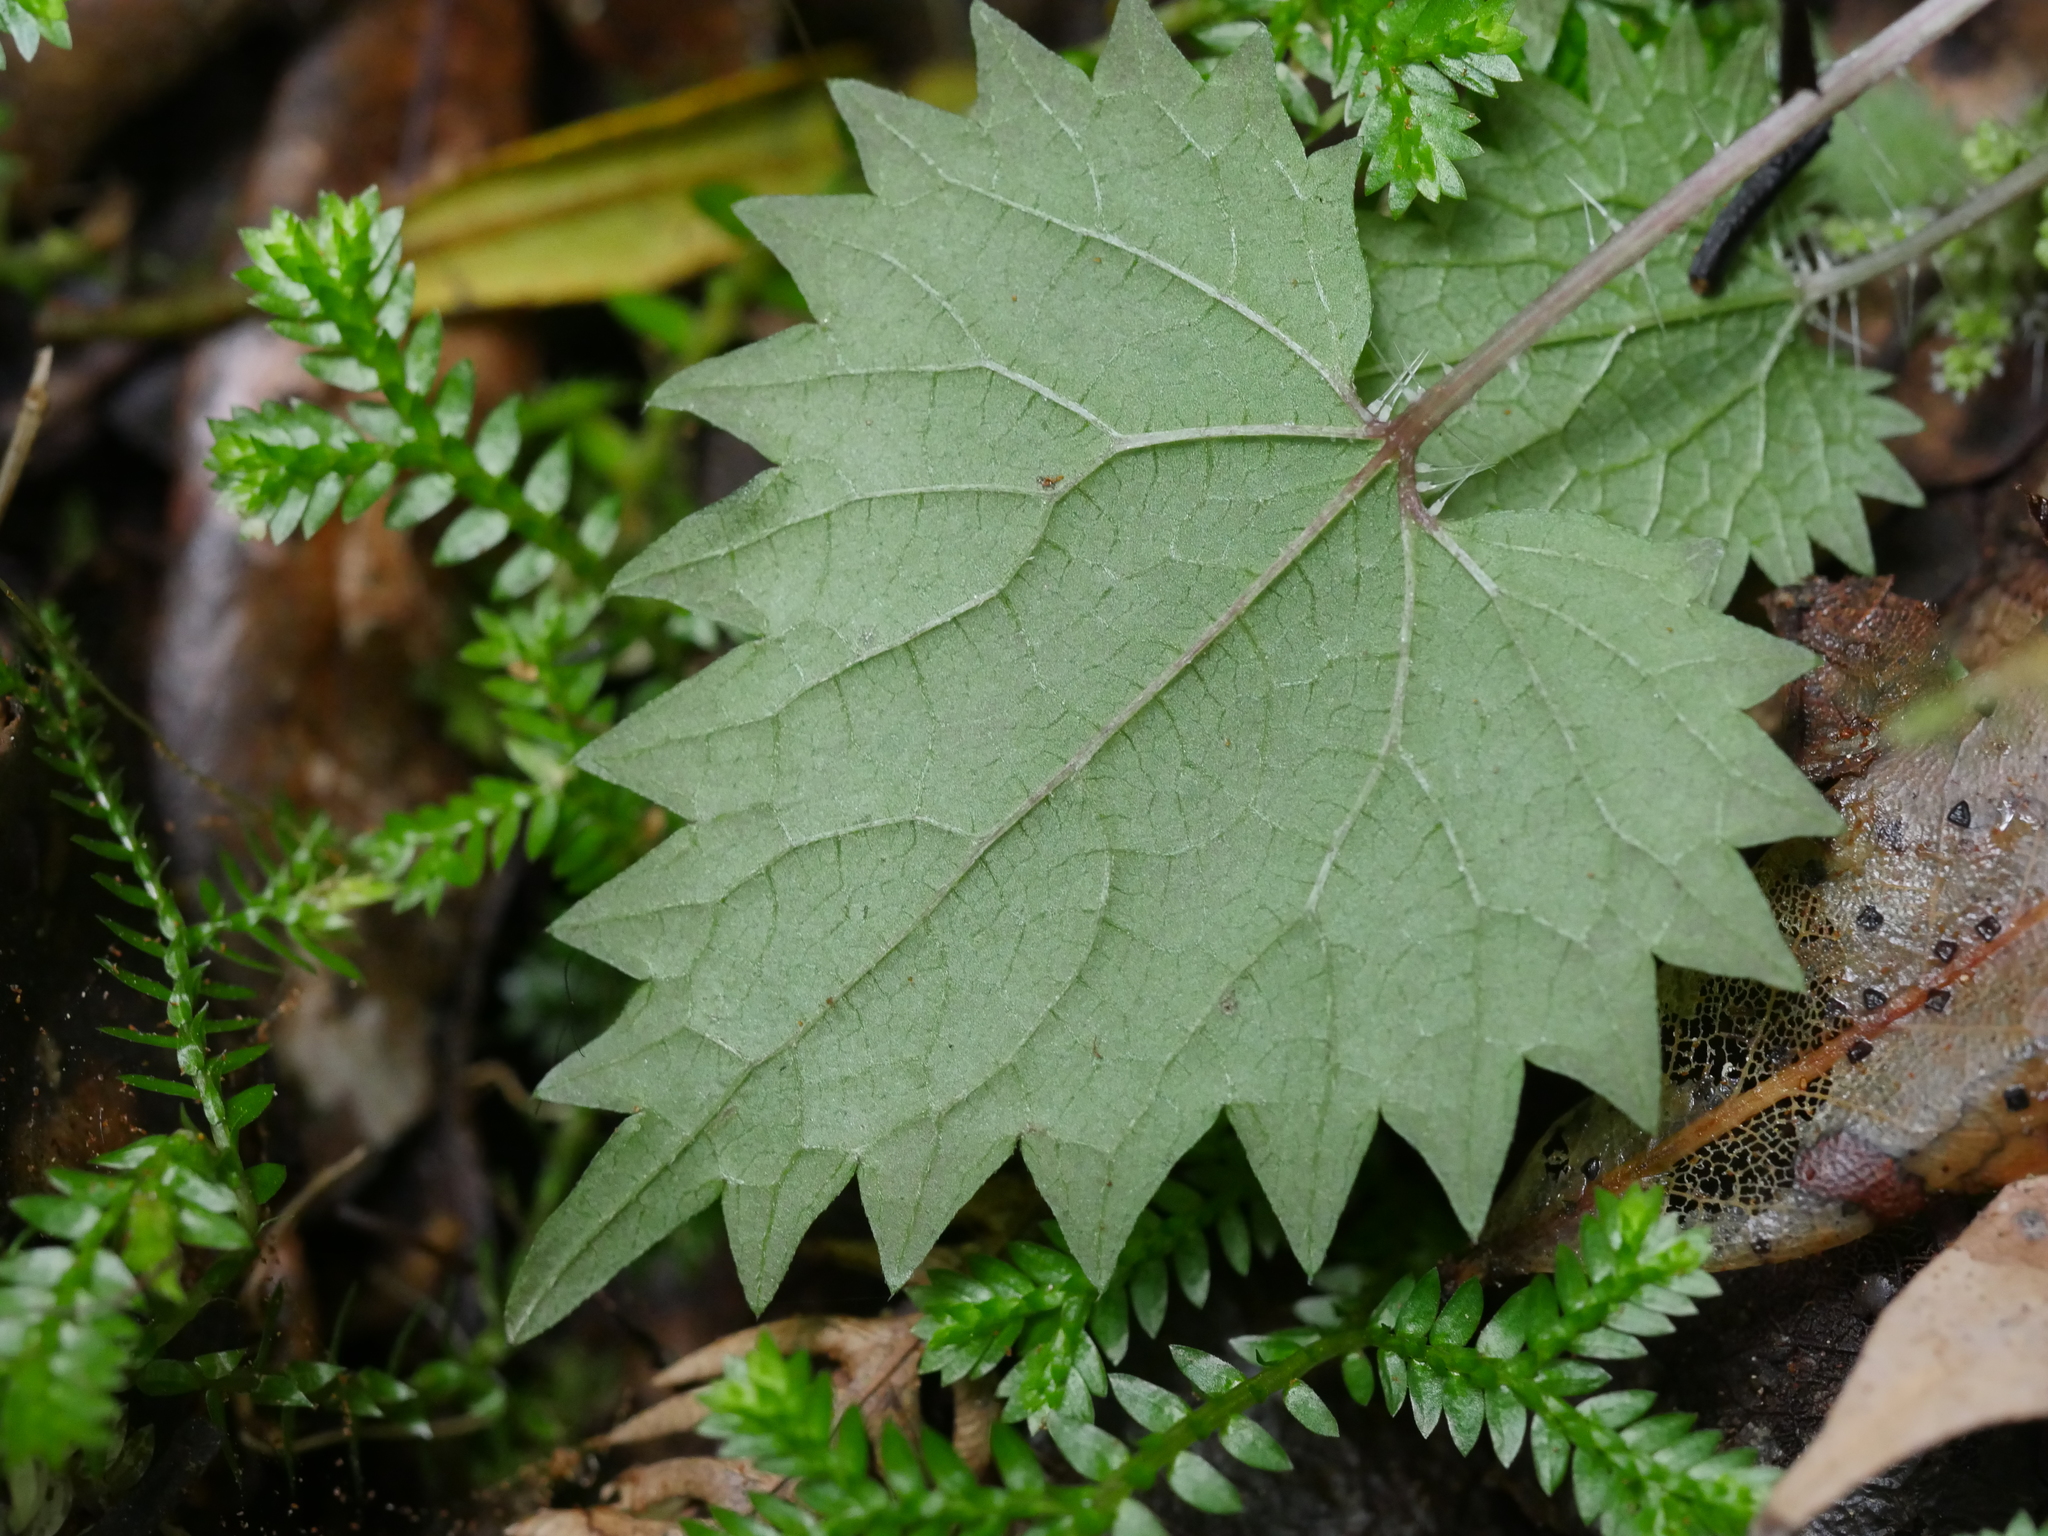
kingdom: Plantae
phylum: Tracheophyta
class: Magnoliopsida
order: Rosales
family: Urticaceae
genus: Urtica
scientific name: Urtica sykesii
